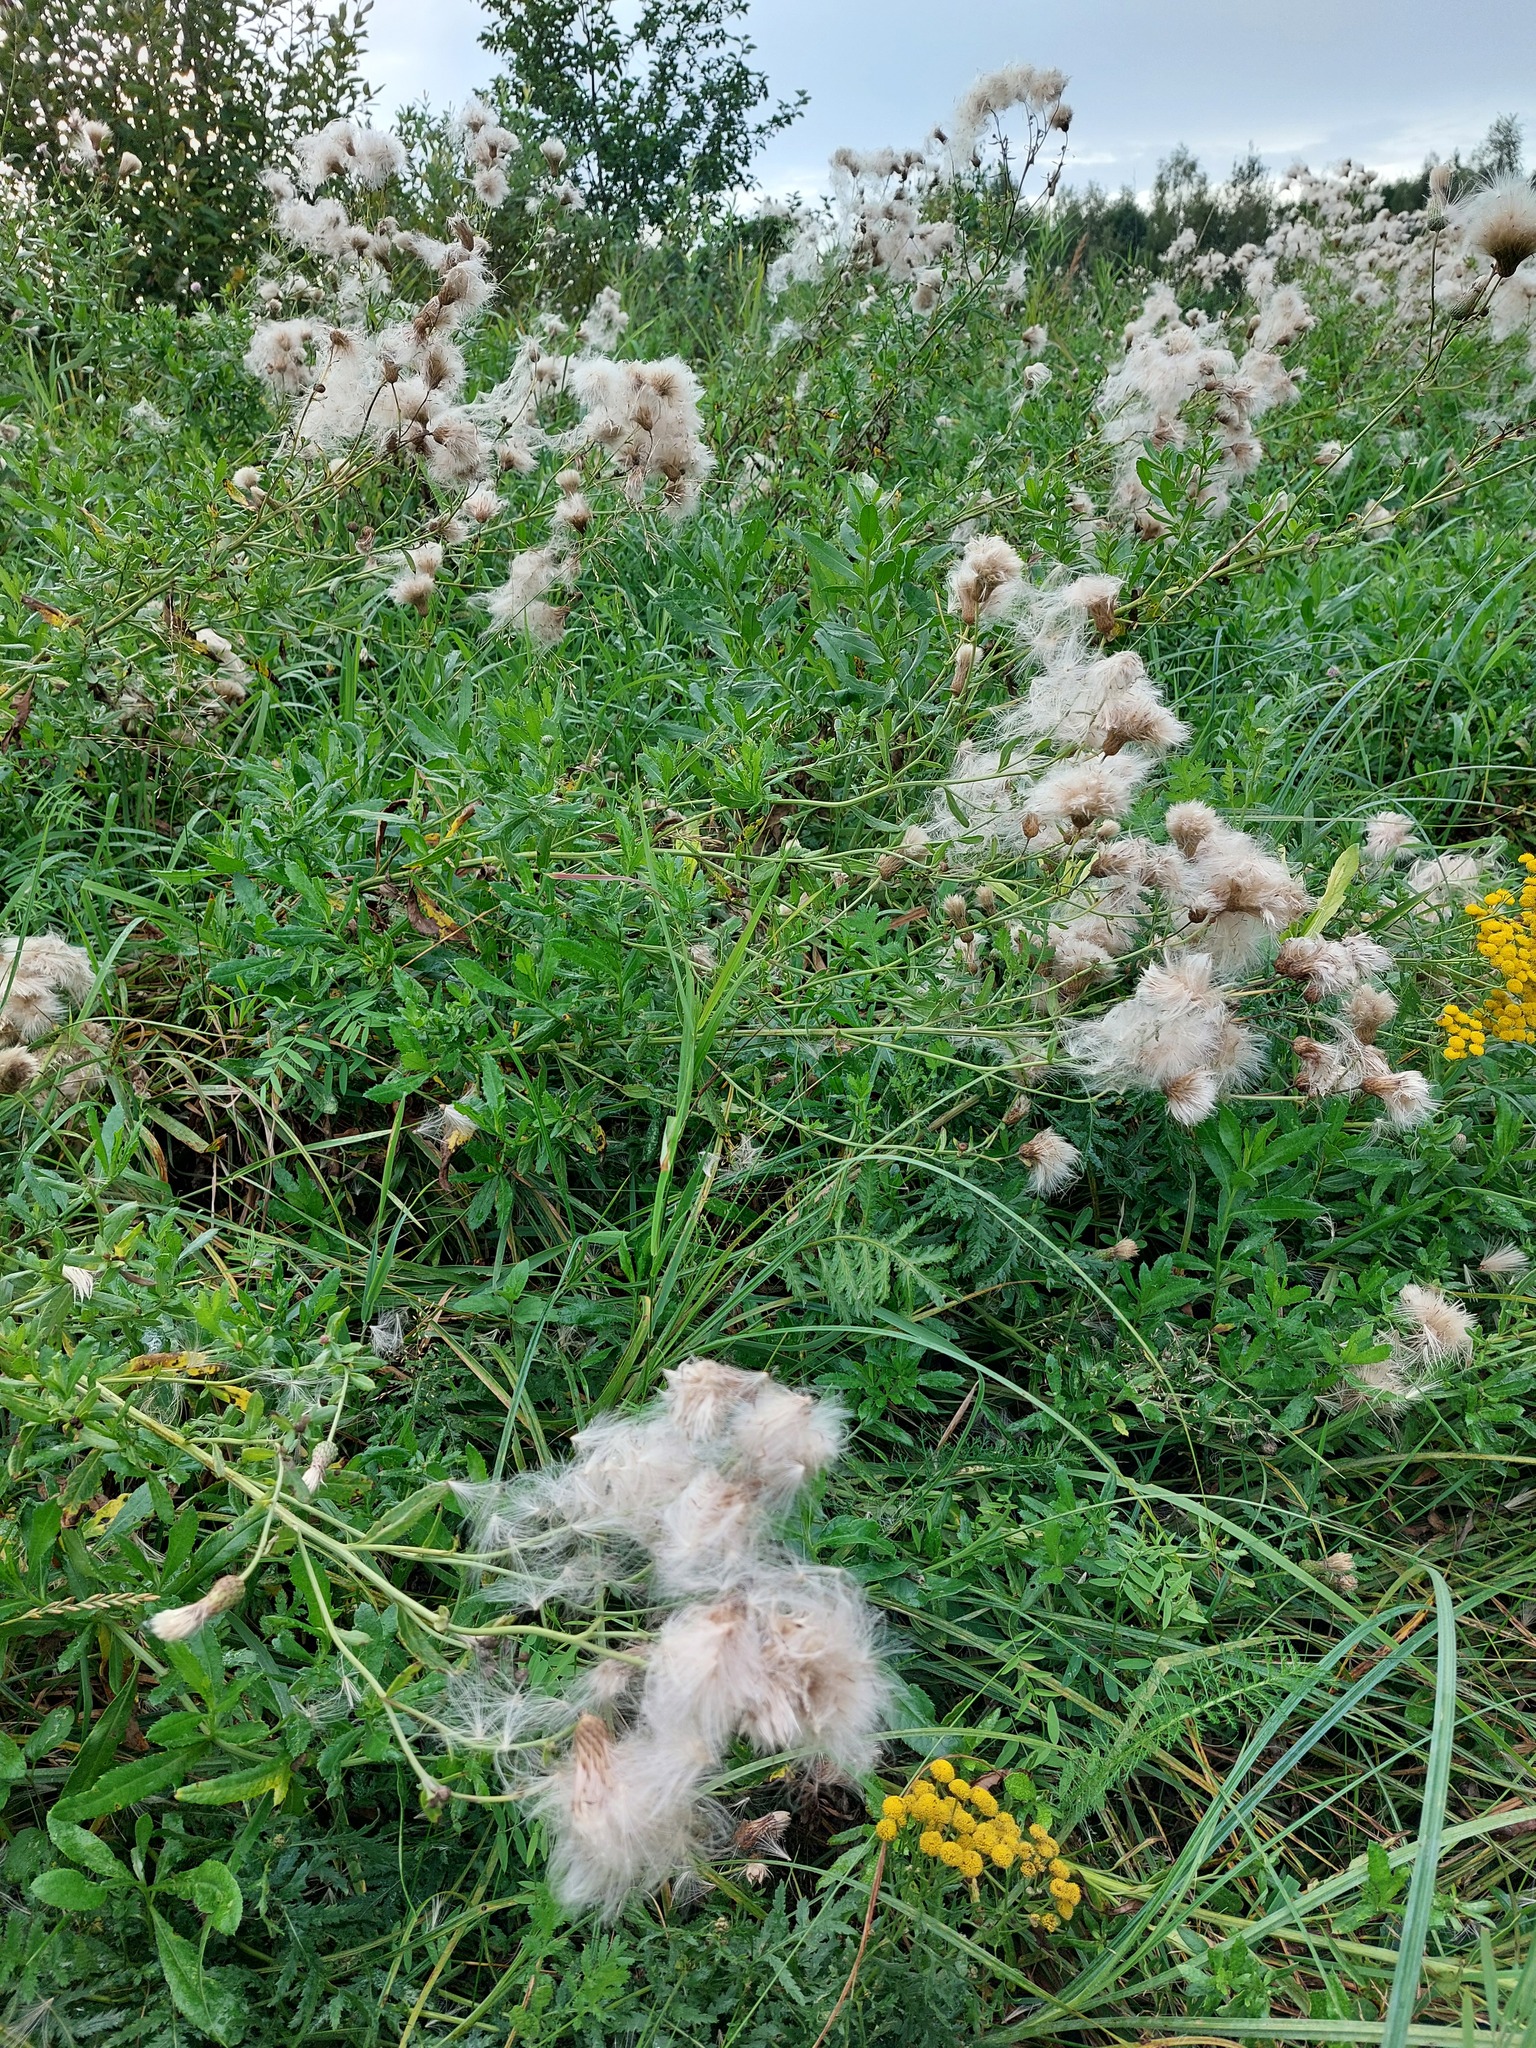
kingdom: Plantae
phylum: Tracheophyta
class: Magnoliopsida
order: Asterales
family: Asteraceae
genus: Cirsium
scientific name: Cirsium arvense
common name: Creeping thistle
